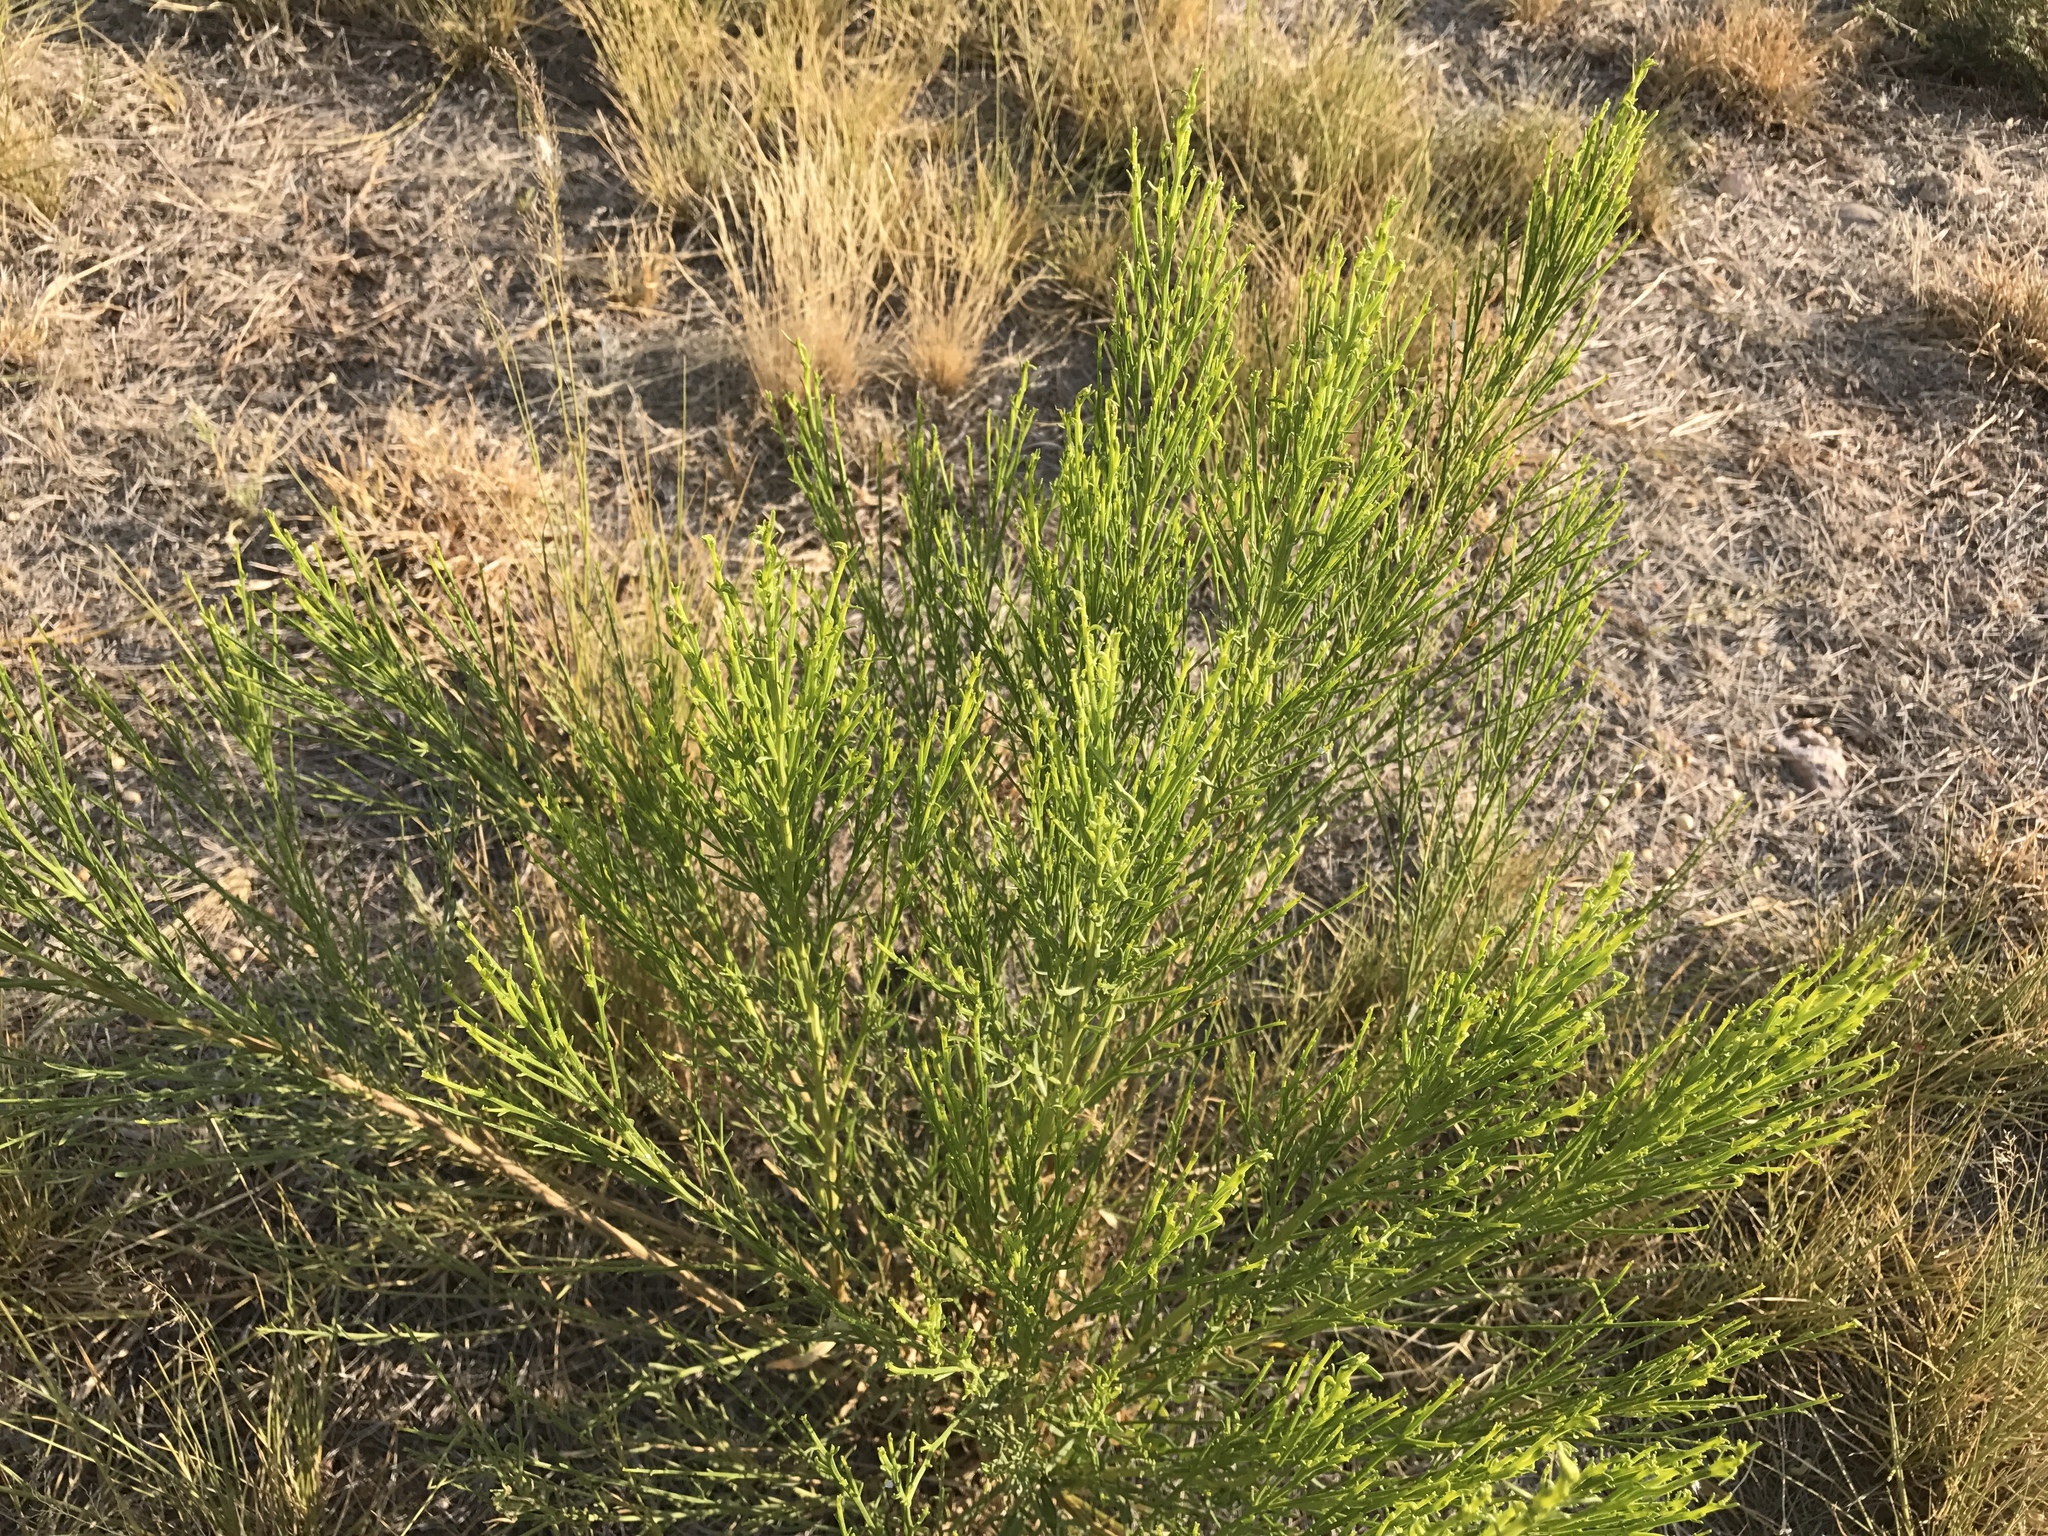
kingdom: Plantae
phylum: Tracheophyta
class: Magnoliopsida
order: Asterales
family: Asteraceae
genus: Baccharis
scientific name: Baccharis sarothroides
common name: Desert-broom
